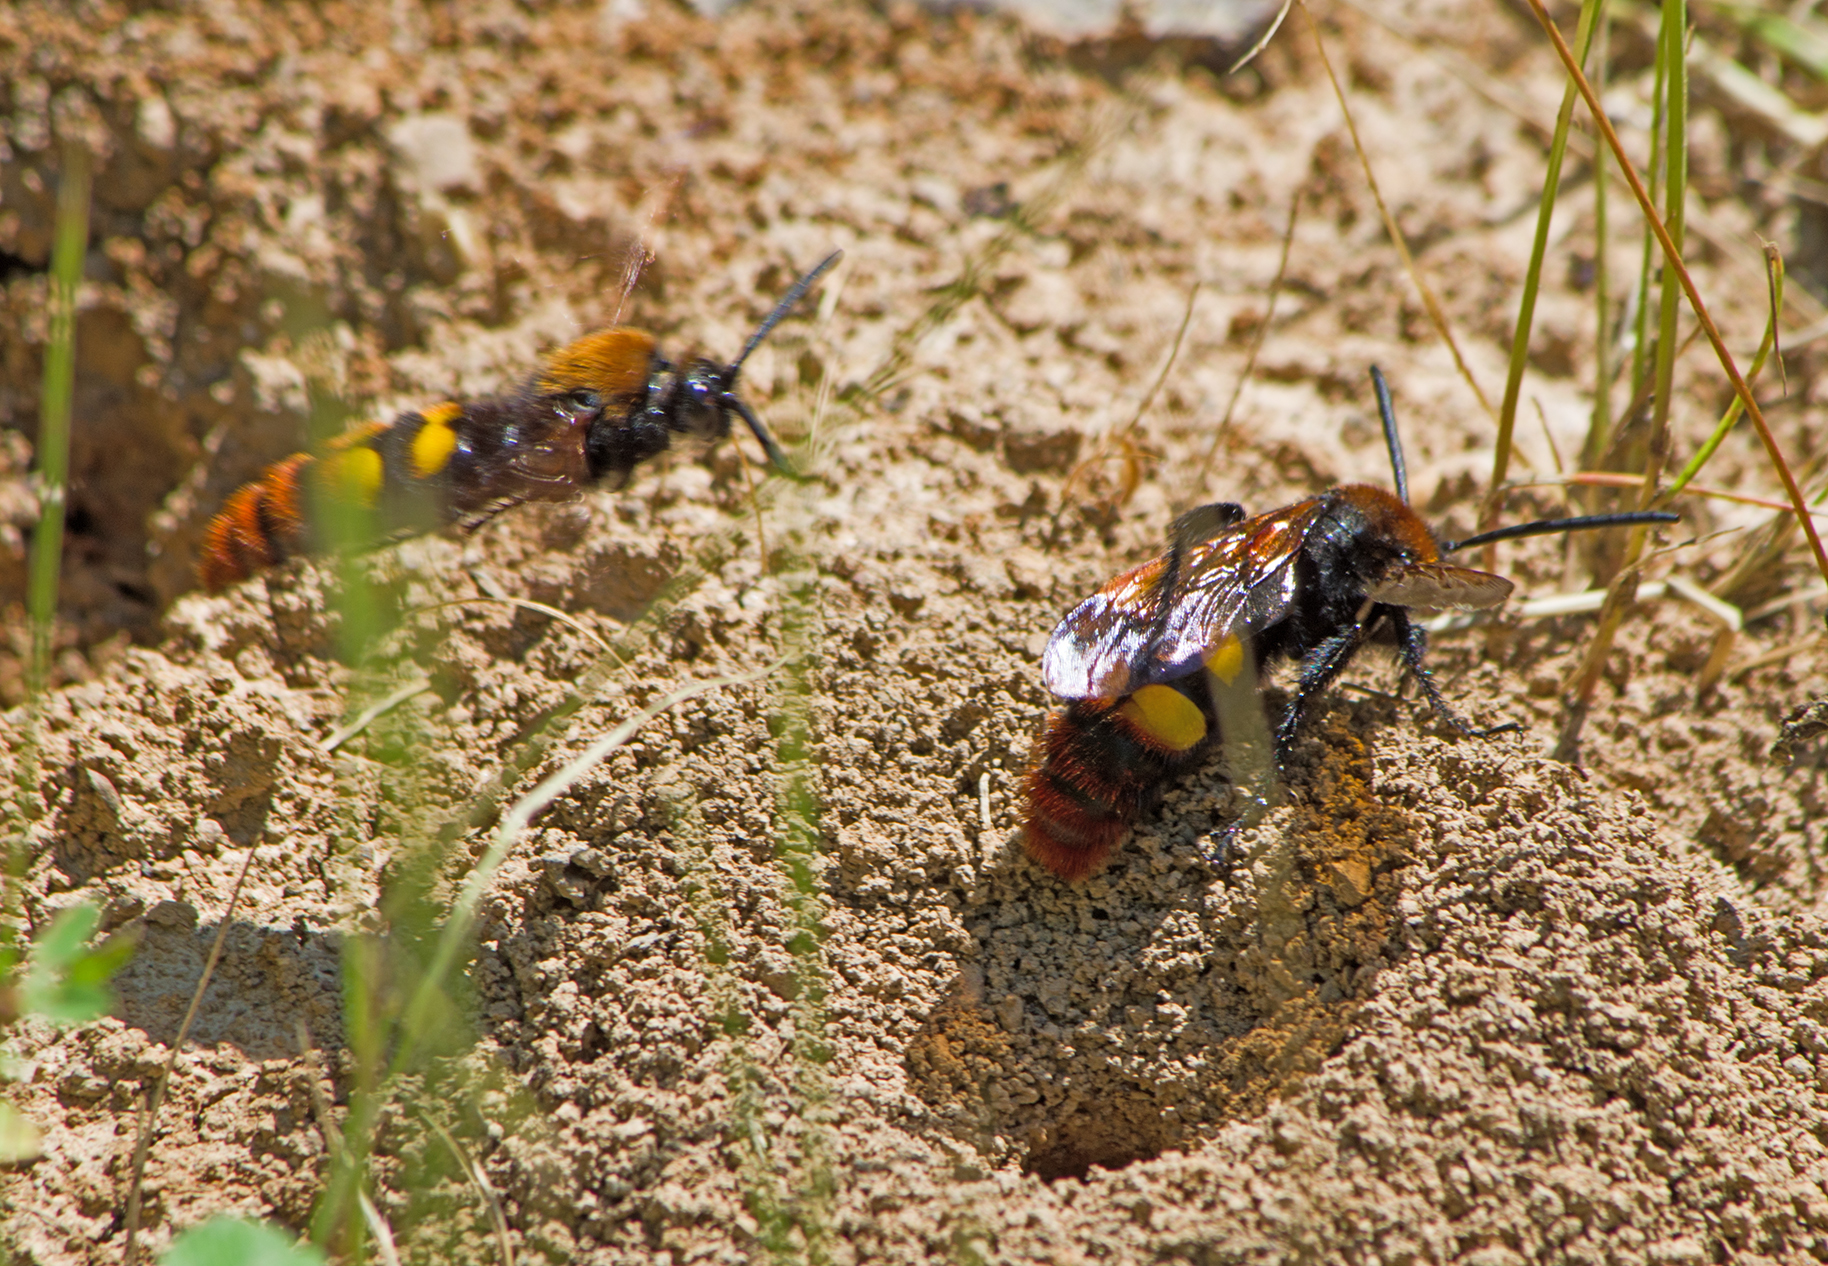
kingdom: Animalia
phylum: Arthropoda
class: Insecta
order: Hymenoptera
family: Scoliidae
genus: Megascolia
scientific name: Megascolia maculata
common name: Mammoth wasp
